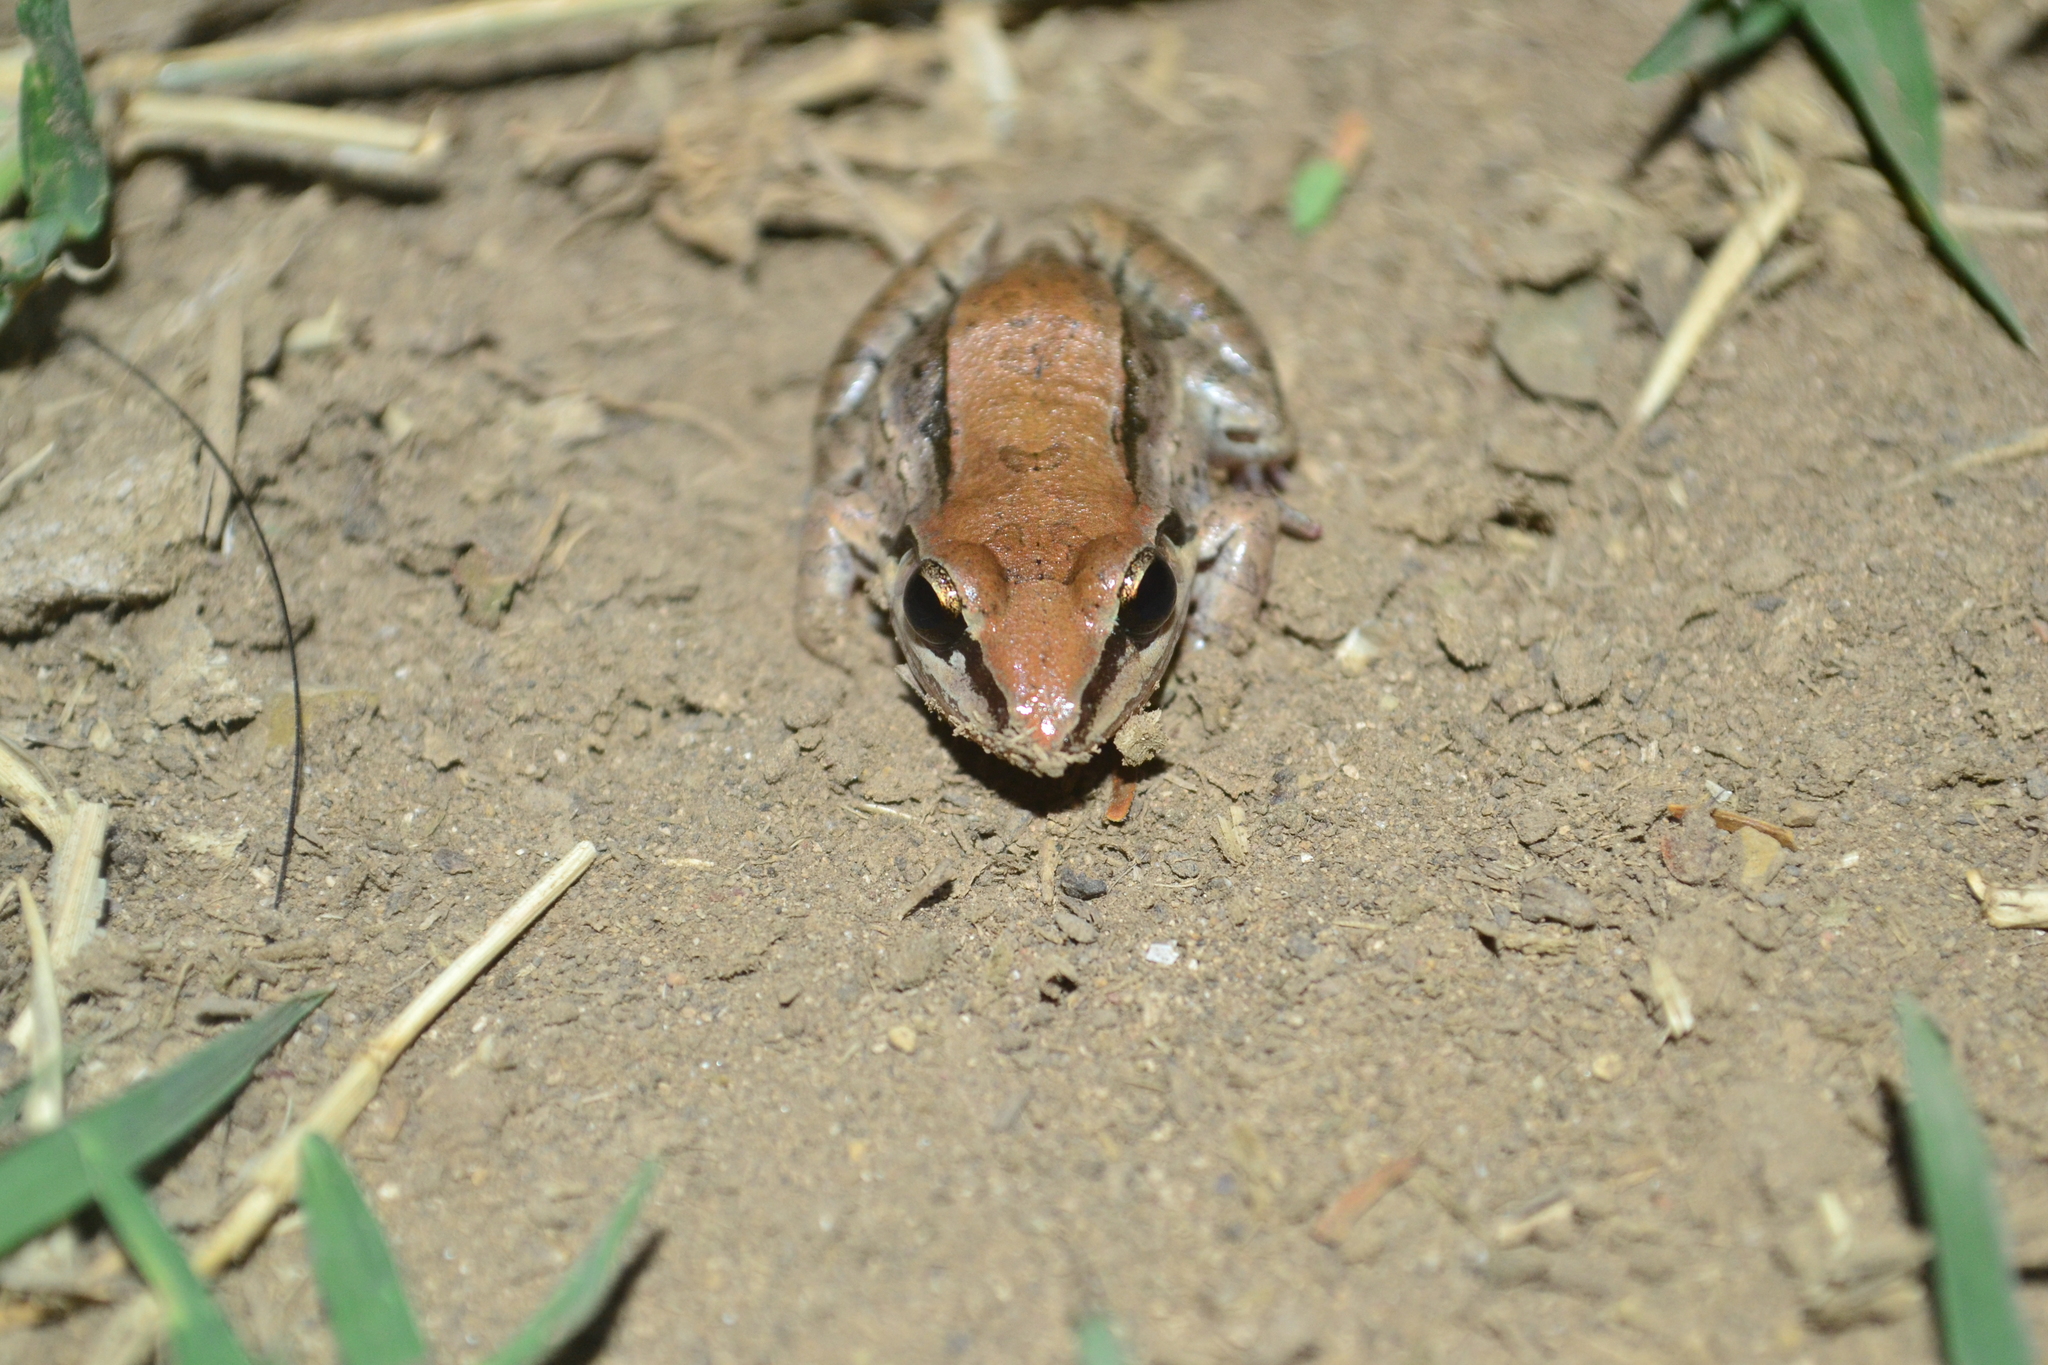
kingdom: Animalia
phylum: Chordata
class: Amphibia
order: Anura
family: Leptodactylidae
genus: Leptodactylus
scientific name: Leptodactylus mystacinus
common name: Moustached frog
